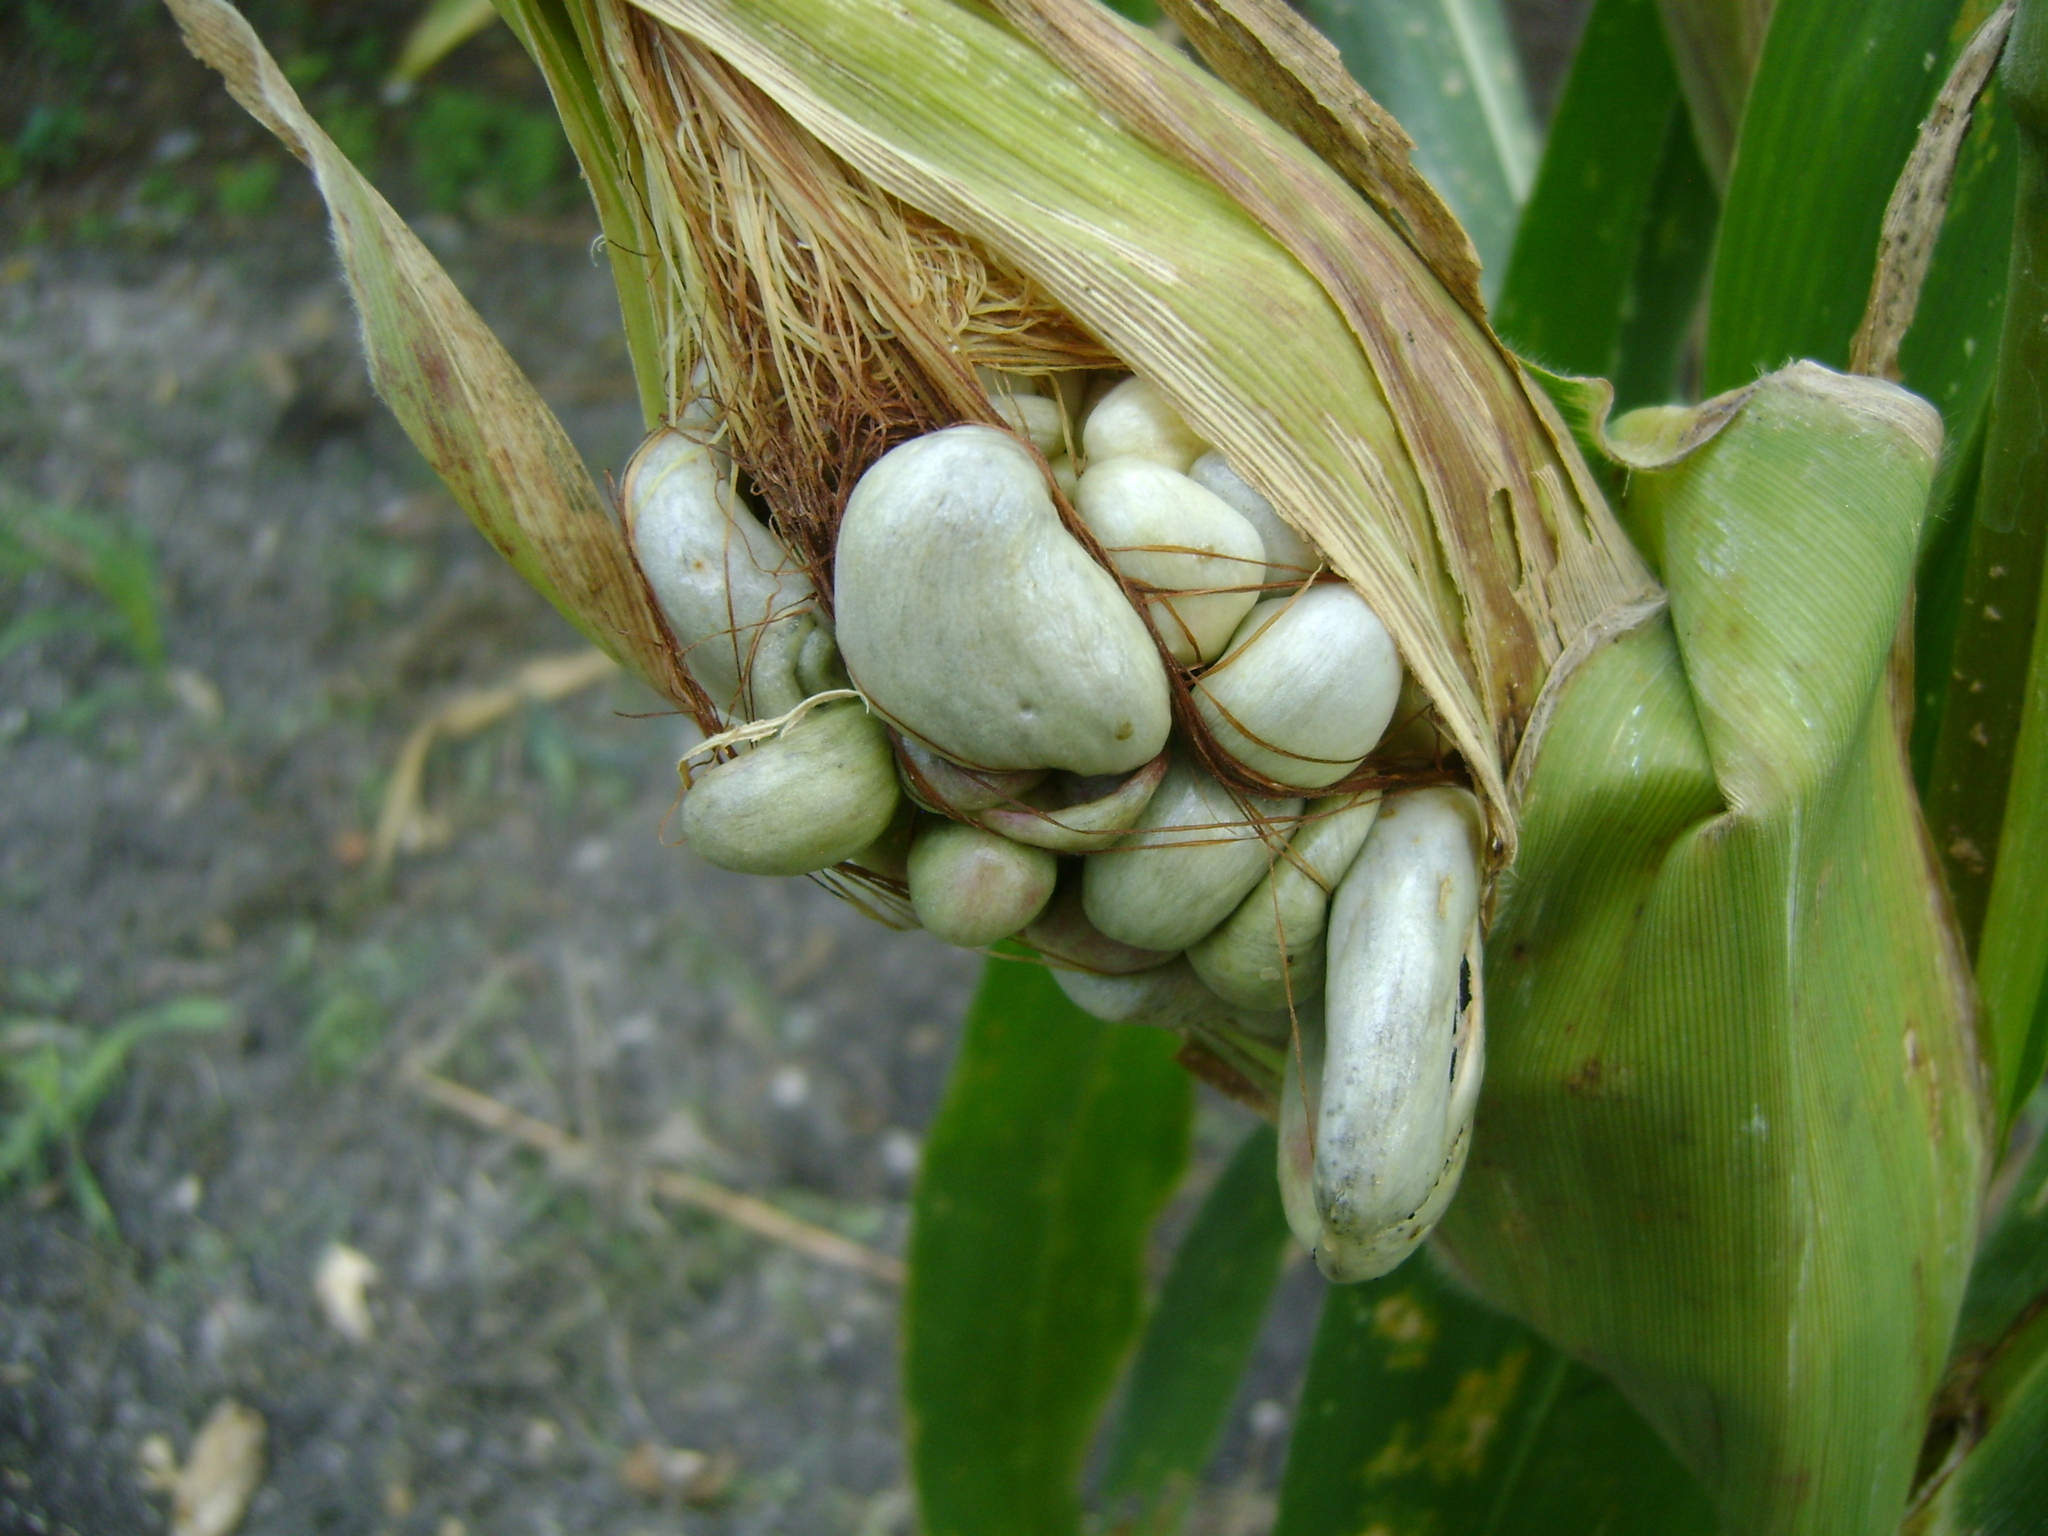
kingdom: Fungi
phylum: Basidiomycota
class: Ustilaginomycetes
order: Ustilaginales
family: Ustilaginaceae
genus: Mycosarcoma
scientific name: Mycosarcoma maydis
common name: Corn smut
